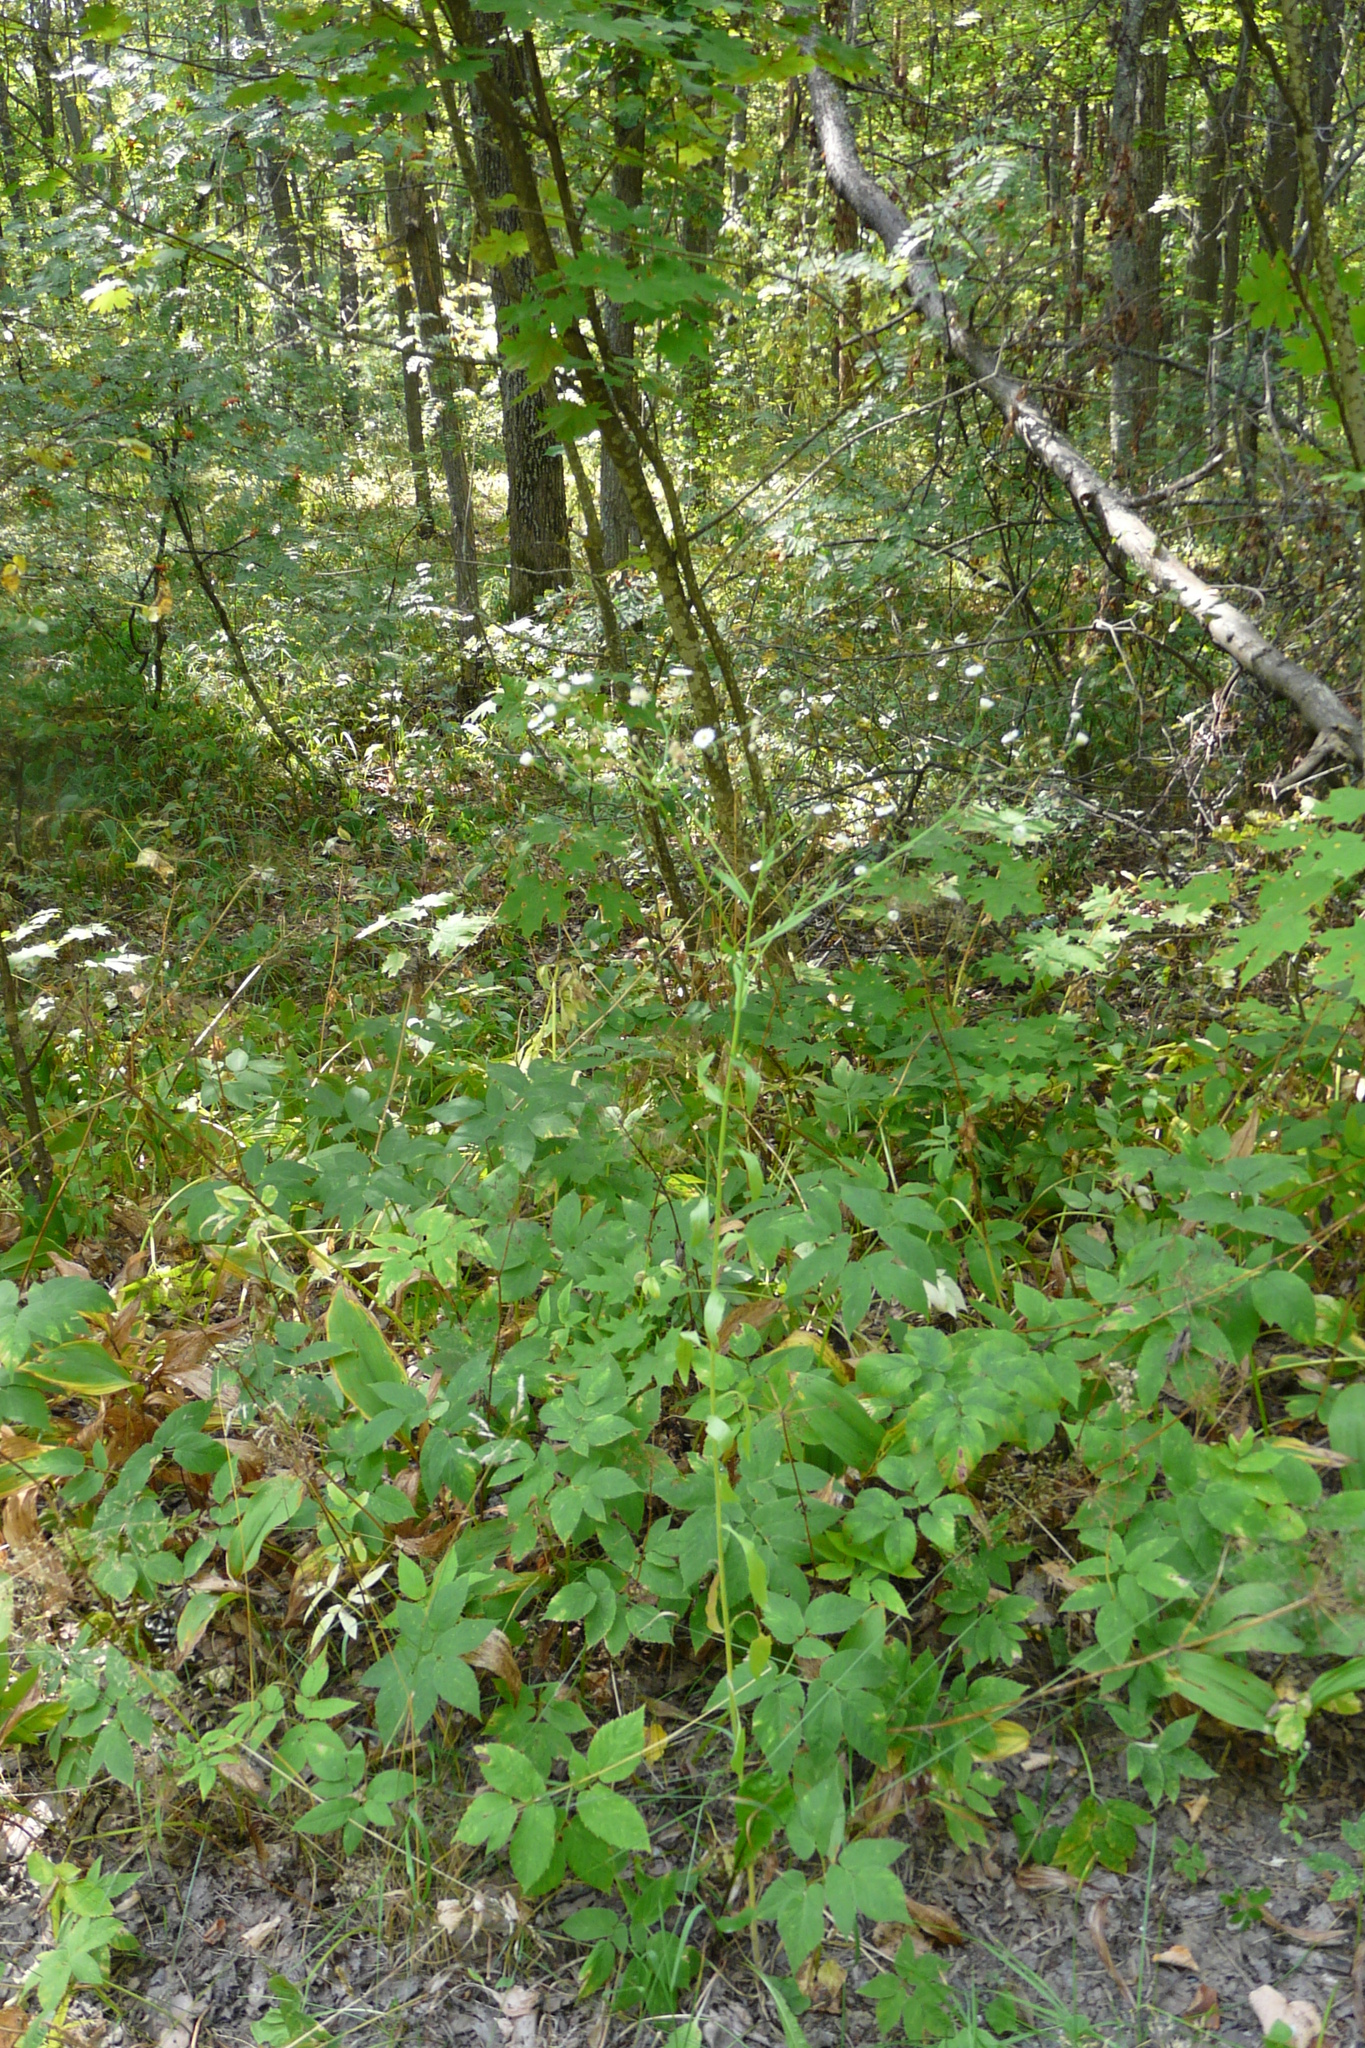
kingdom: Plantae
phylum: Tracheophyta
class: Magnoliopsida
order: Asterales
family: Asteraceae
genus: Erigeron
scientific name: Erigeron annuus
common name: Tall fleabane
